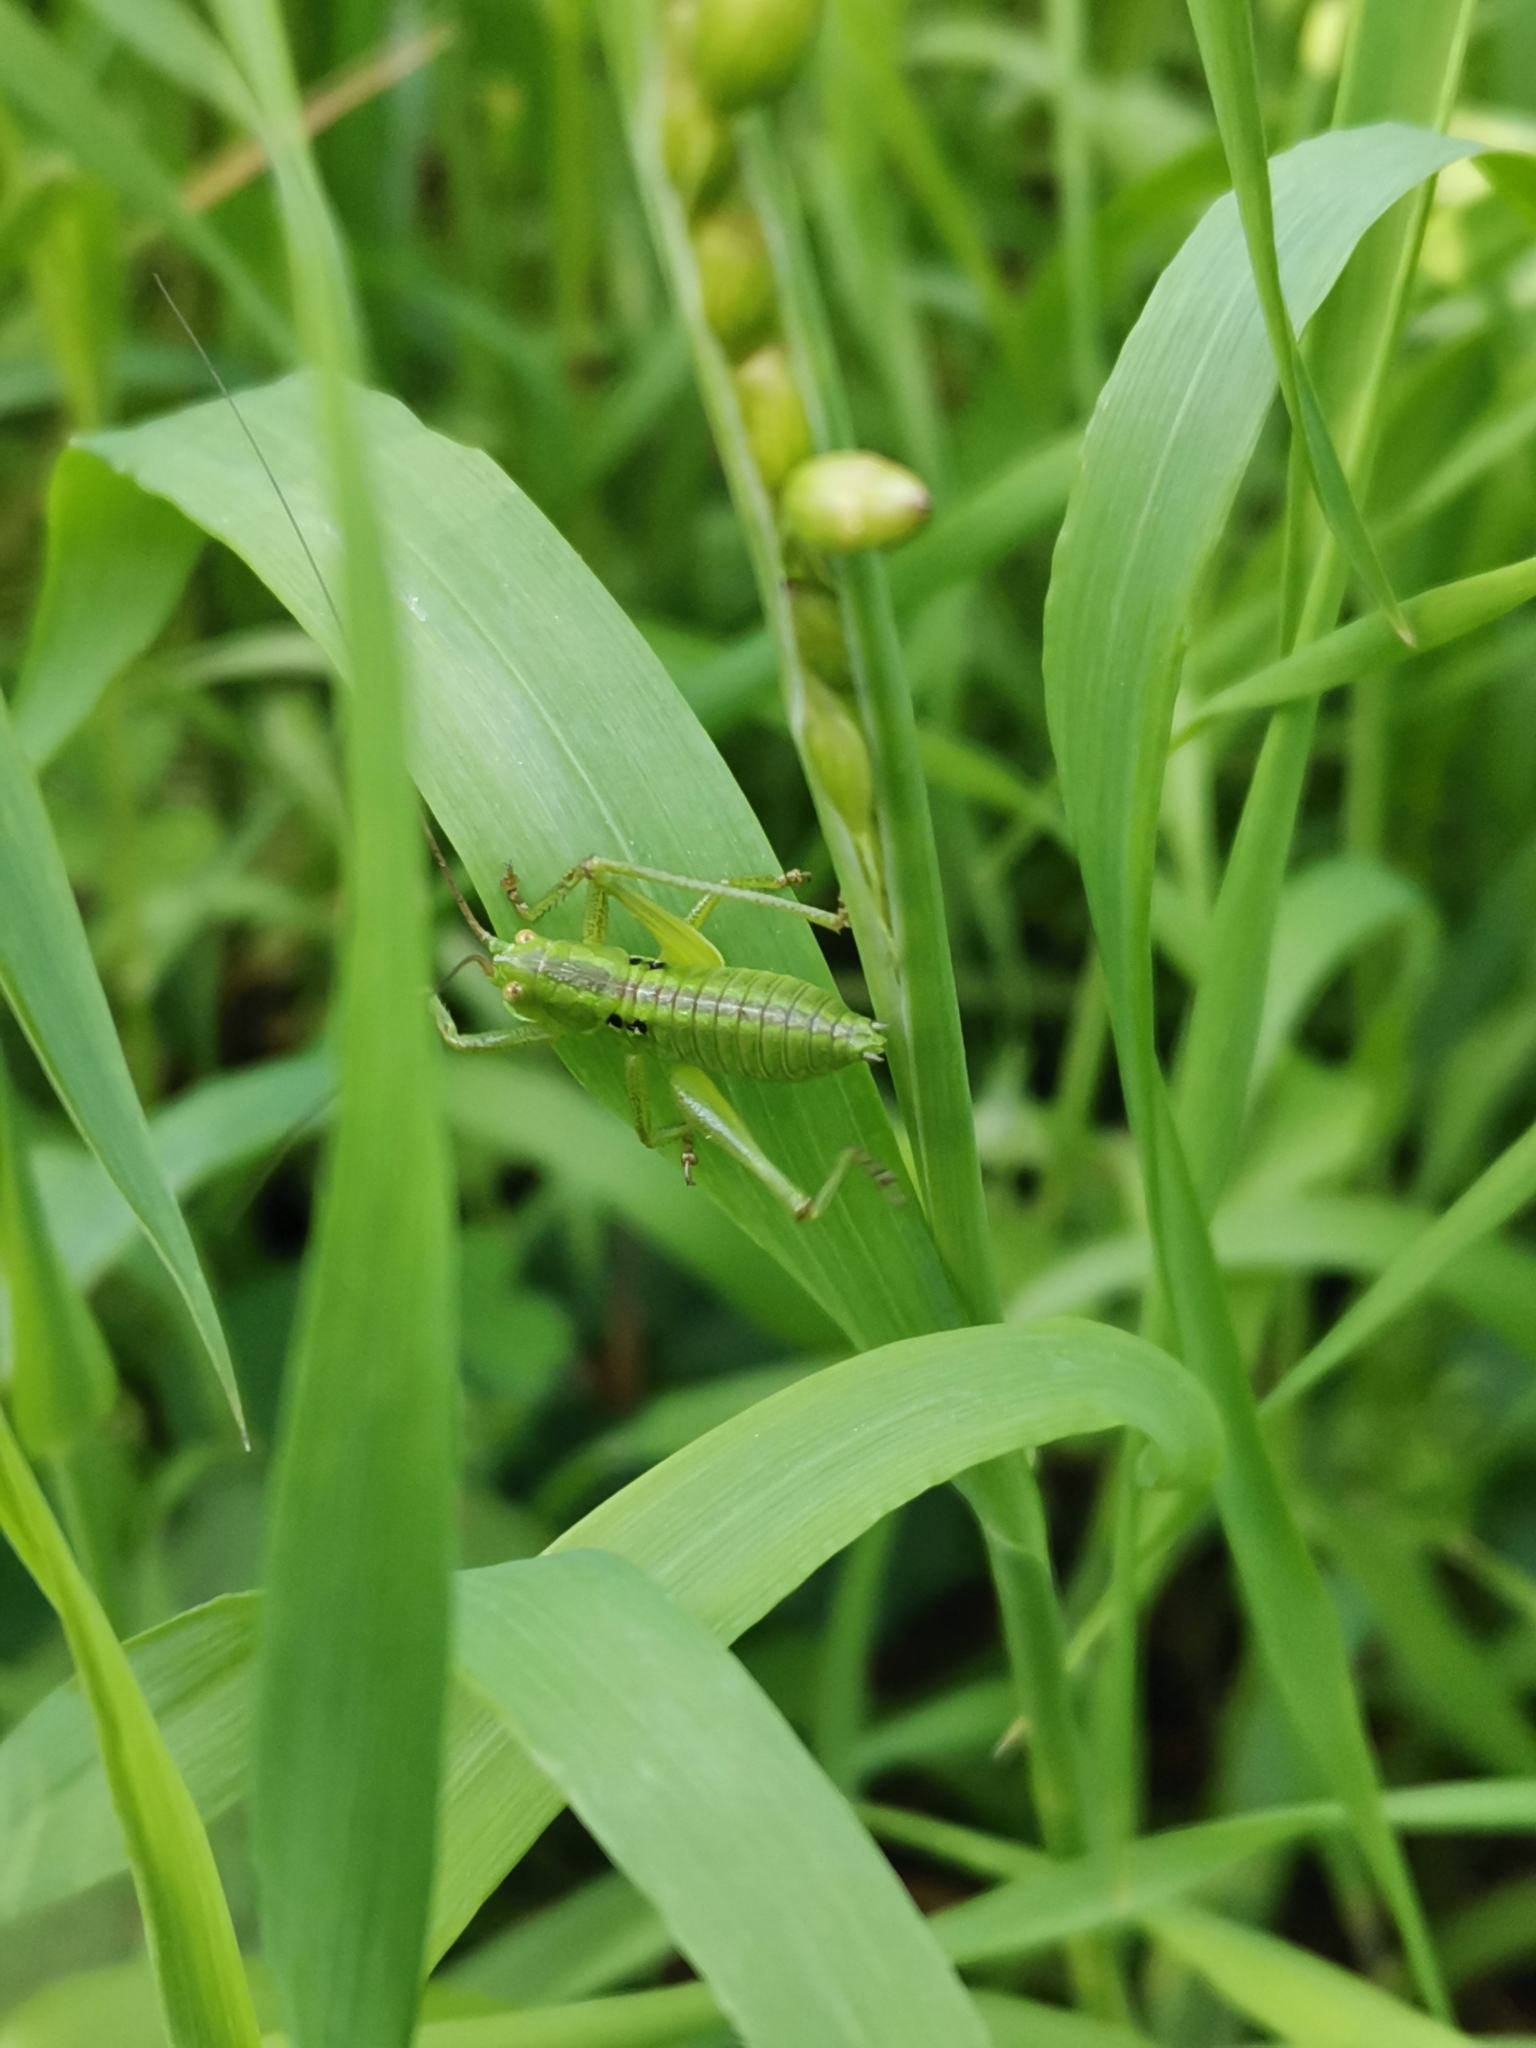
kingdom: Animalia
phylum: Arthropoda
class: Insecta
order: Orthoptera
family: Tettigoniidae
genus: Tettigonia
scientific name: Tettigonia orientalis
